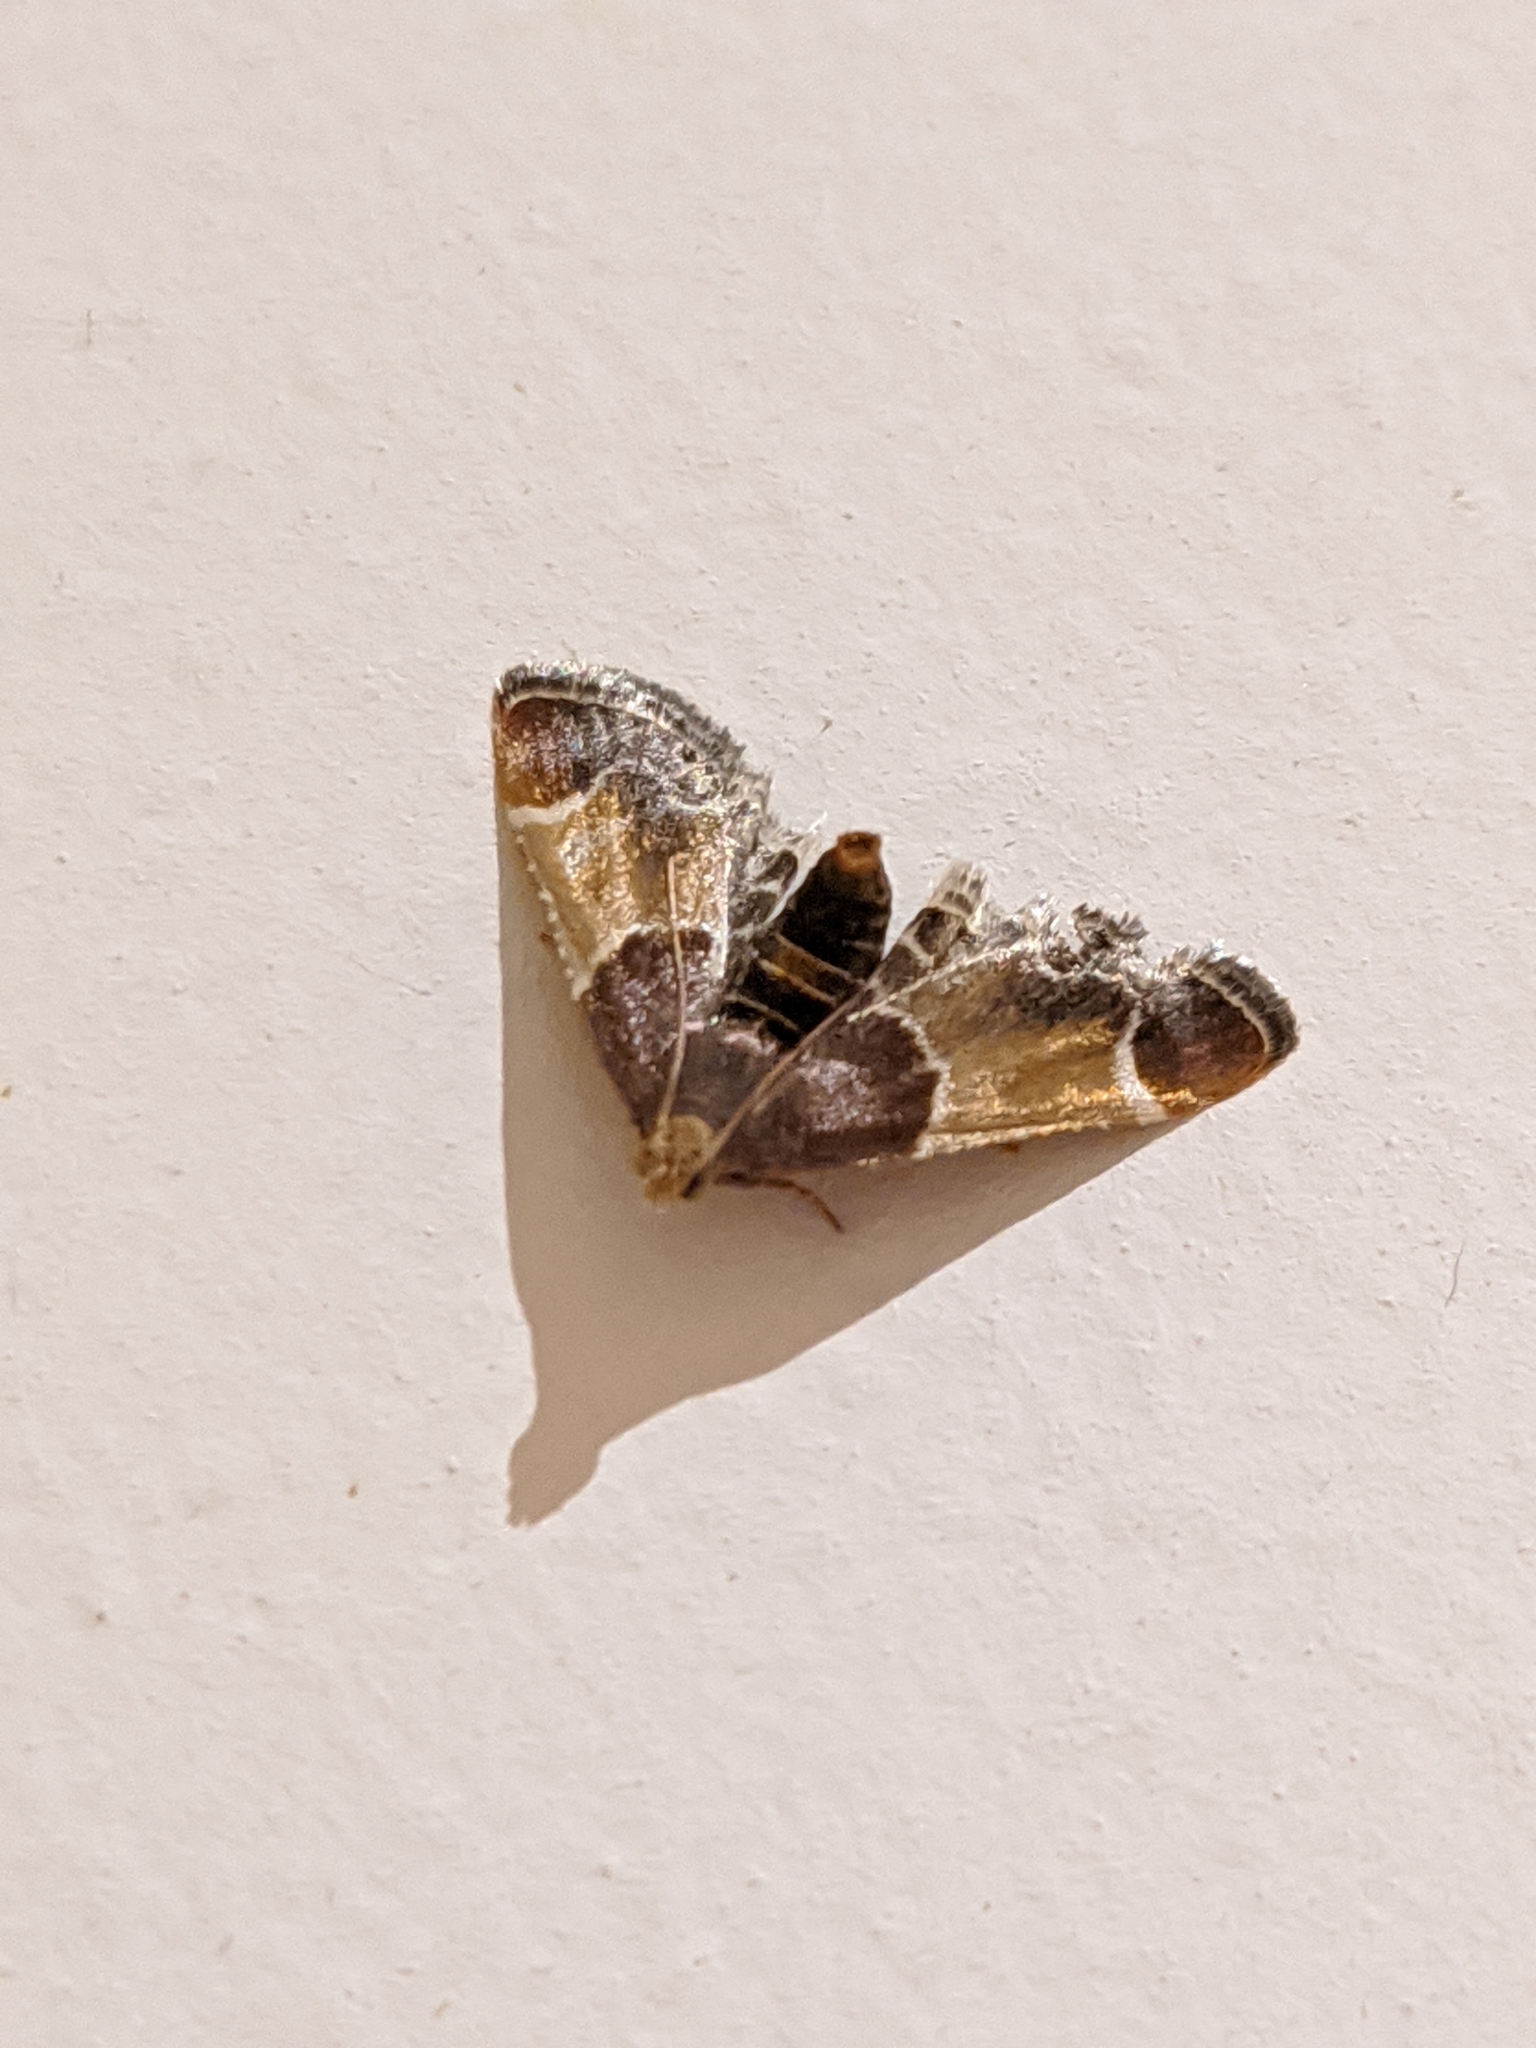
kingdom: Animalia
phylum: Arthropoda
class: Insecta
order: Lepidoptera
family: Pyralidae
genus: Pyralis
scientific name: Pyralis farinalis
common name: Meal moth
